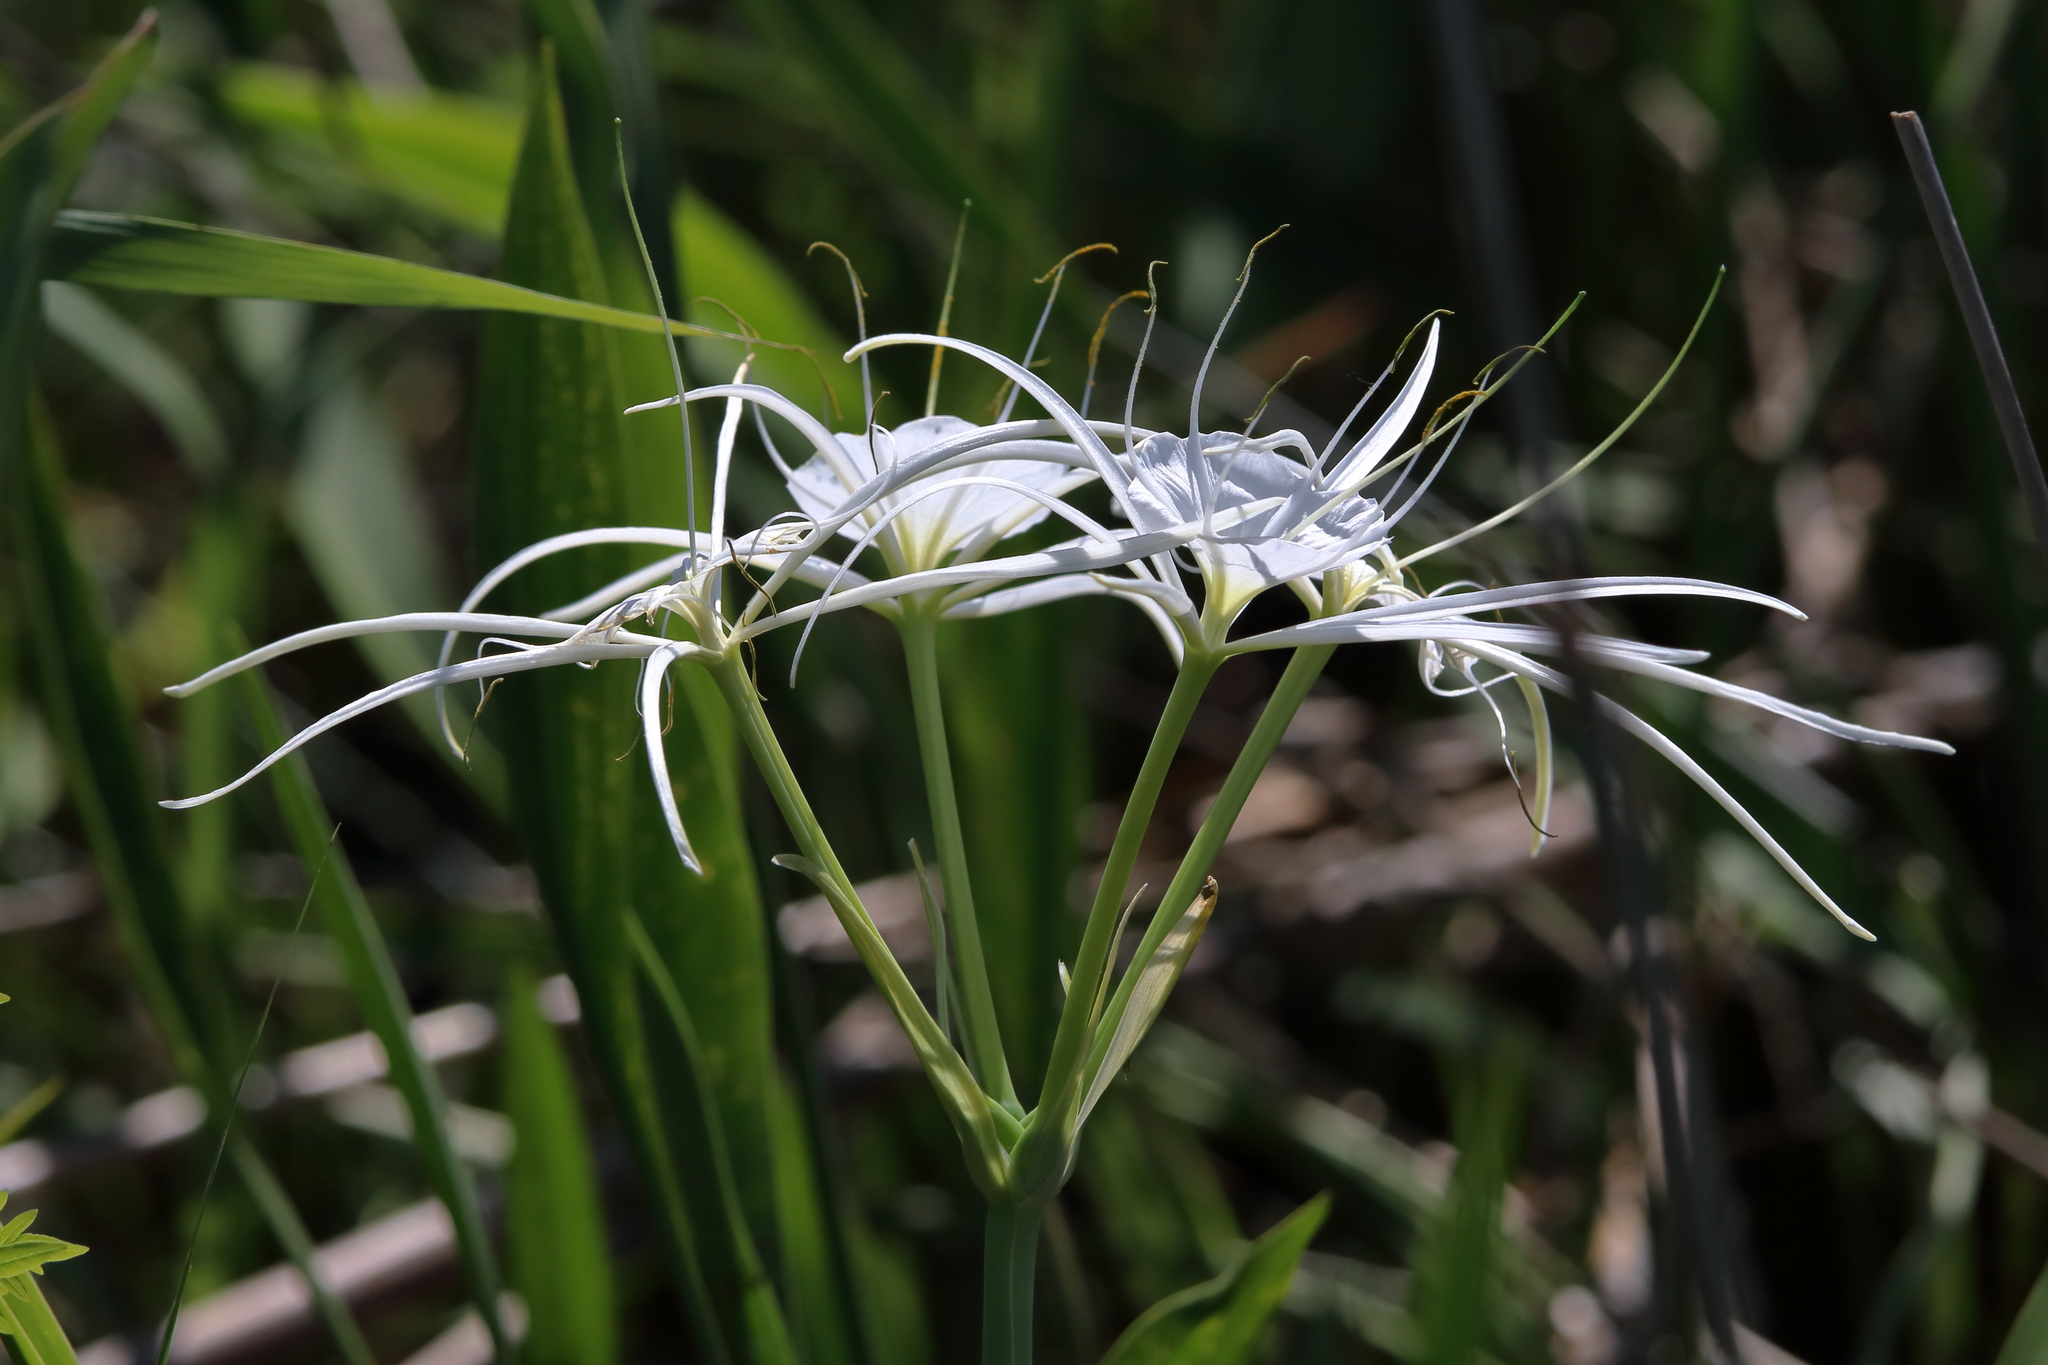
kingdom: Plantae
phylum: Tracheophyta
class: Liliopsida
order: Asparagales
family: Amaryllidaceae
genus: Hymenocallis
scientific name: Hymenocallis choctawensis
